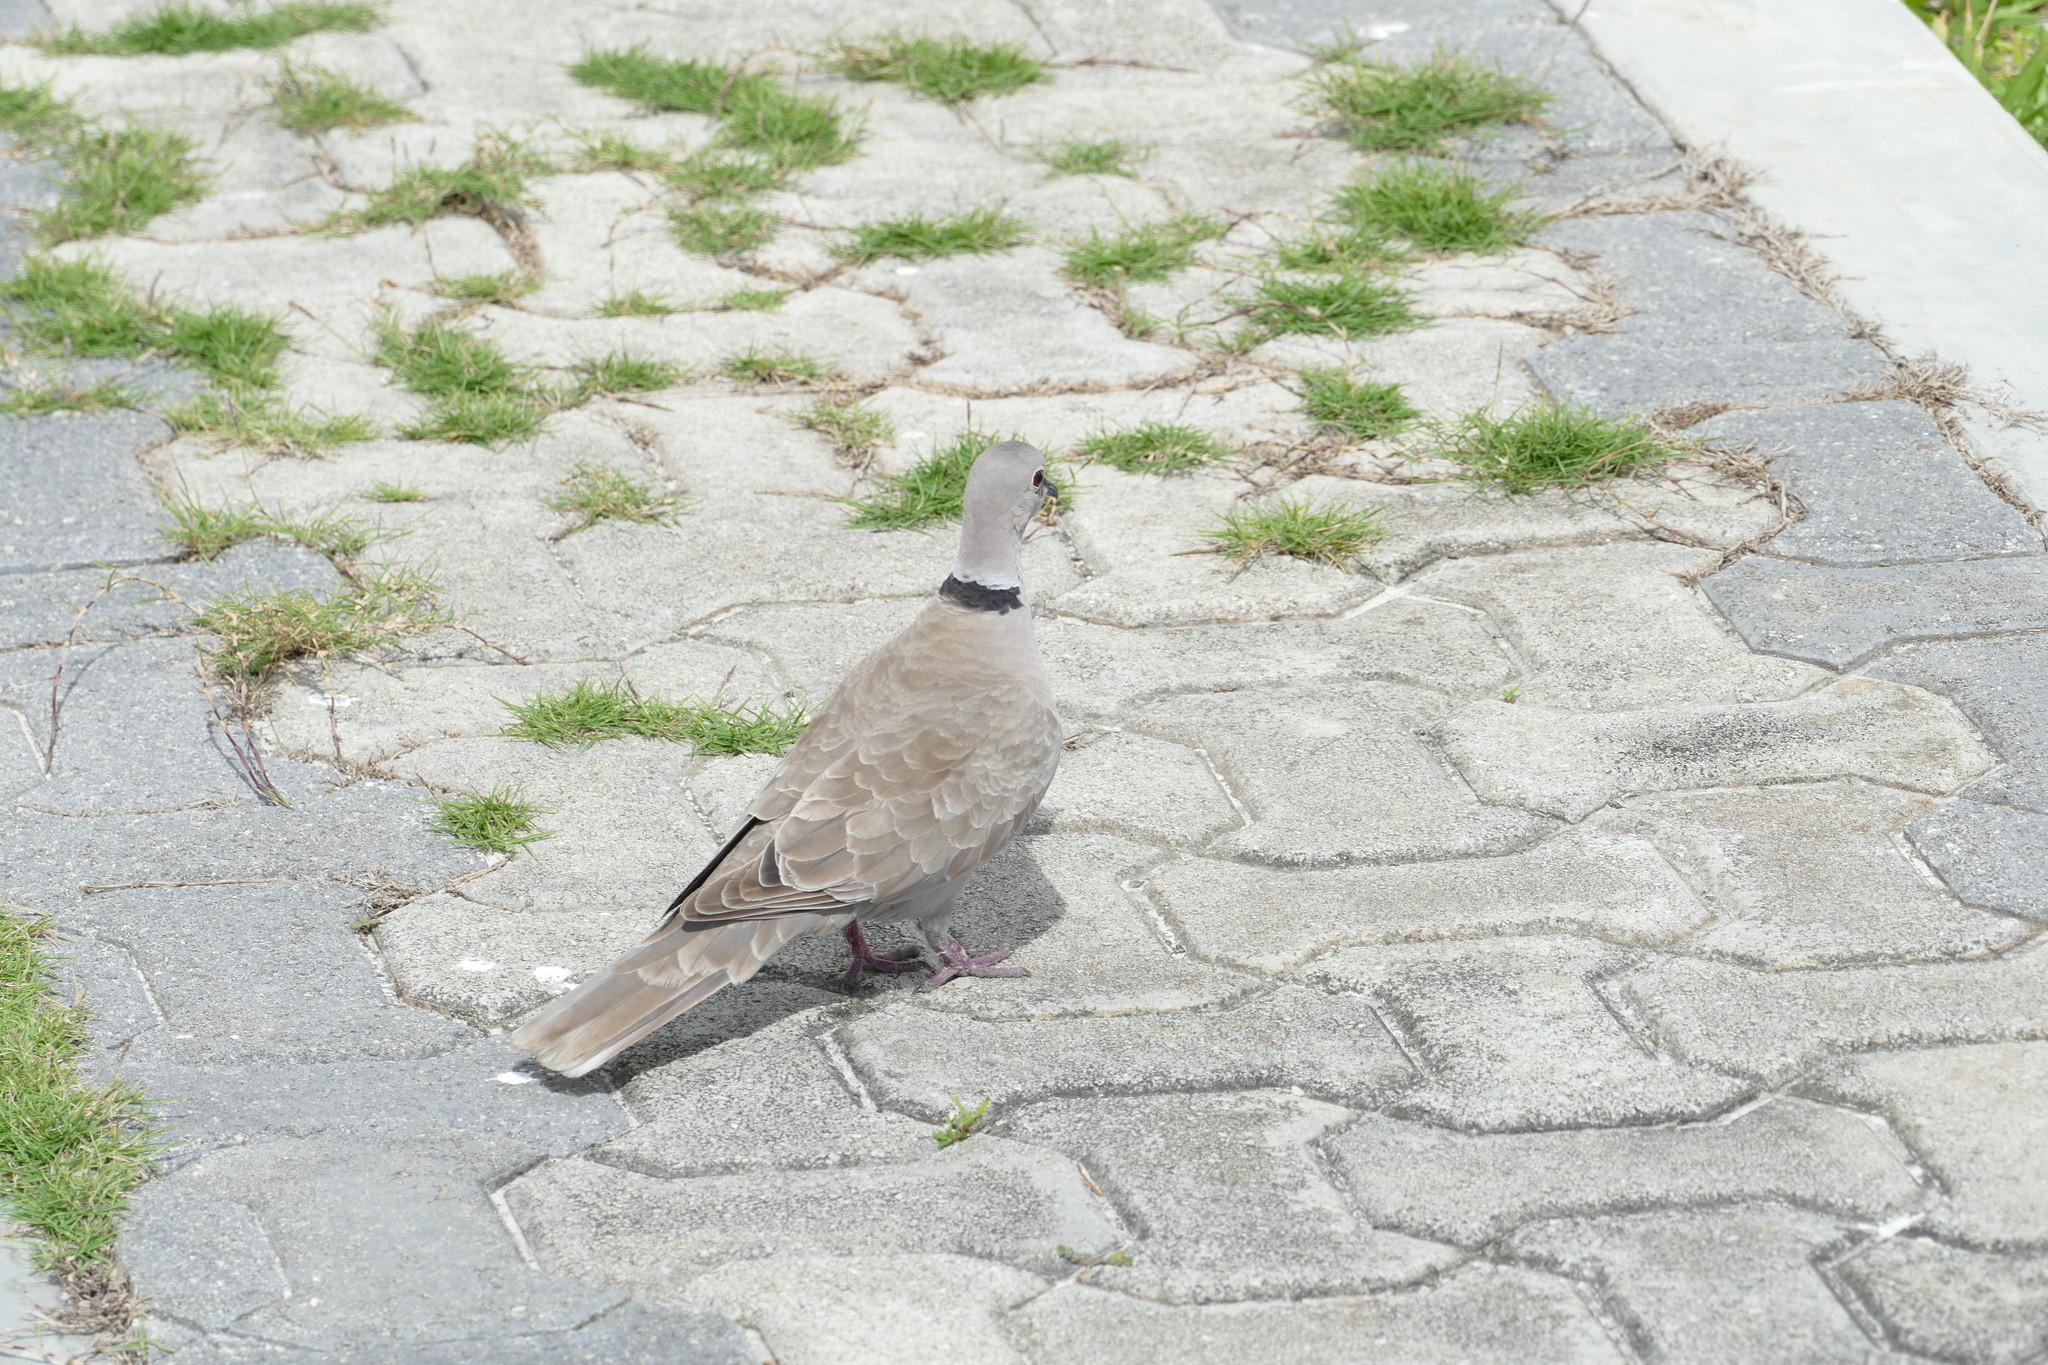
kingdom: Animalia
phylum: Chordata
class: Aves
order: Columbiformes
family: Columbidae
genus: Streptopelia
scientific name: Streptopelia decaocto
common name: Eurasian collared dove
